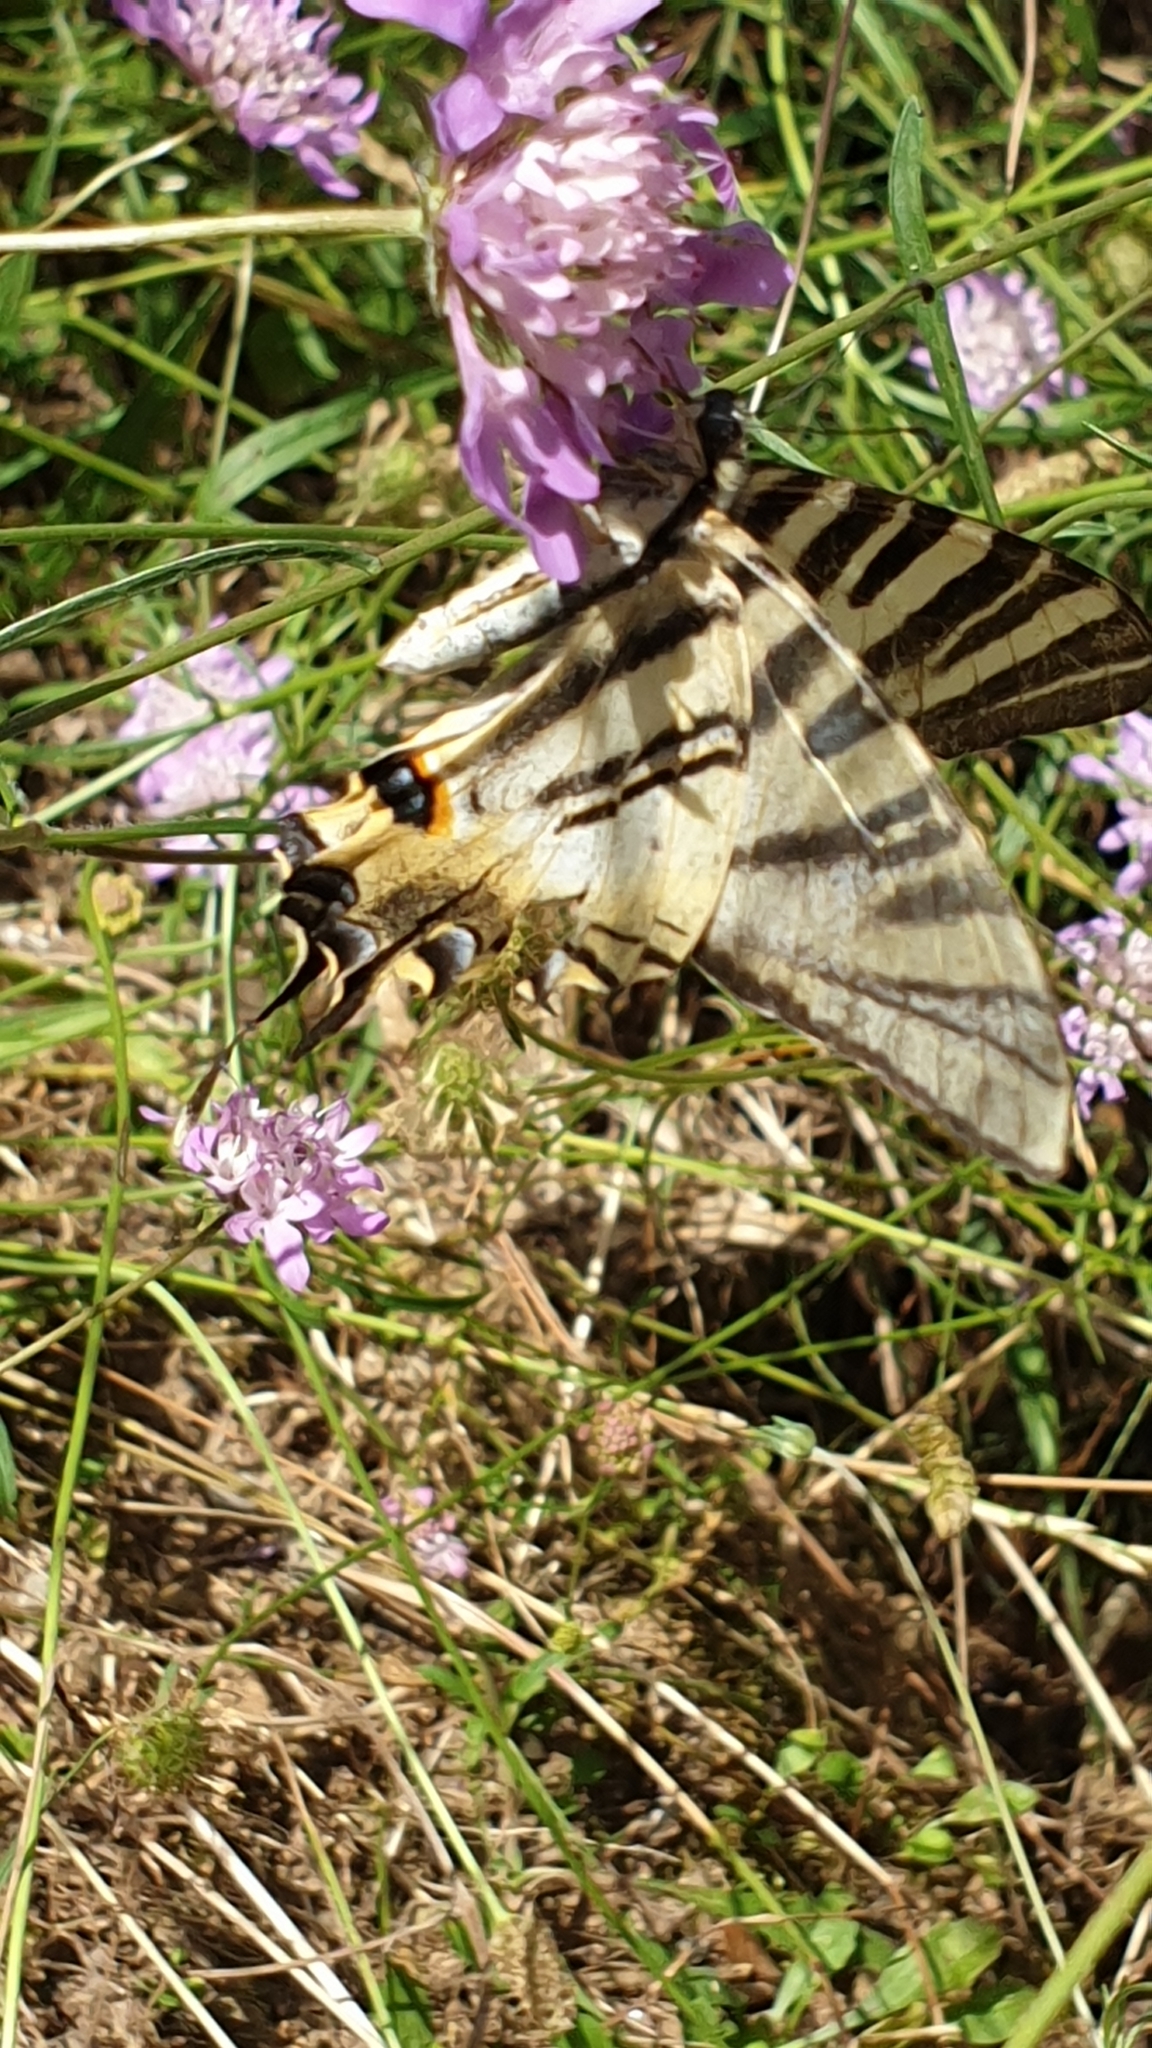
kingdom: Animalia
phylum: Arthropoda
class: Insecta
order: Lepidoptera
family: Papilionidae
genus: Iphiclides
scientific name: Iphiclides feisthamelii
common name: Iberian scarce swallowtail
